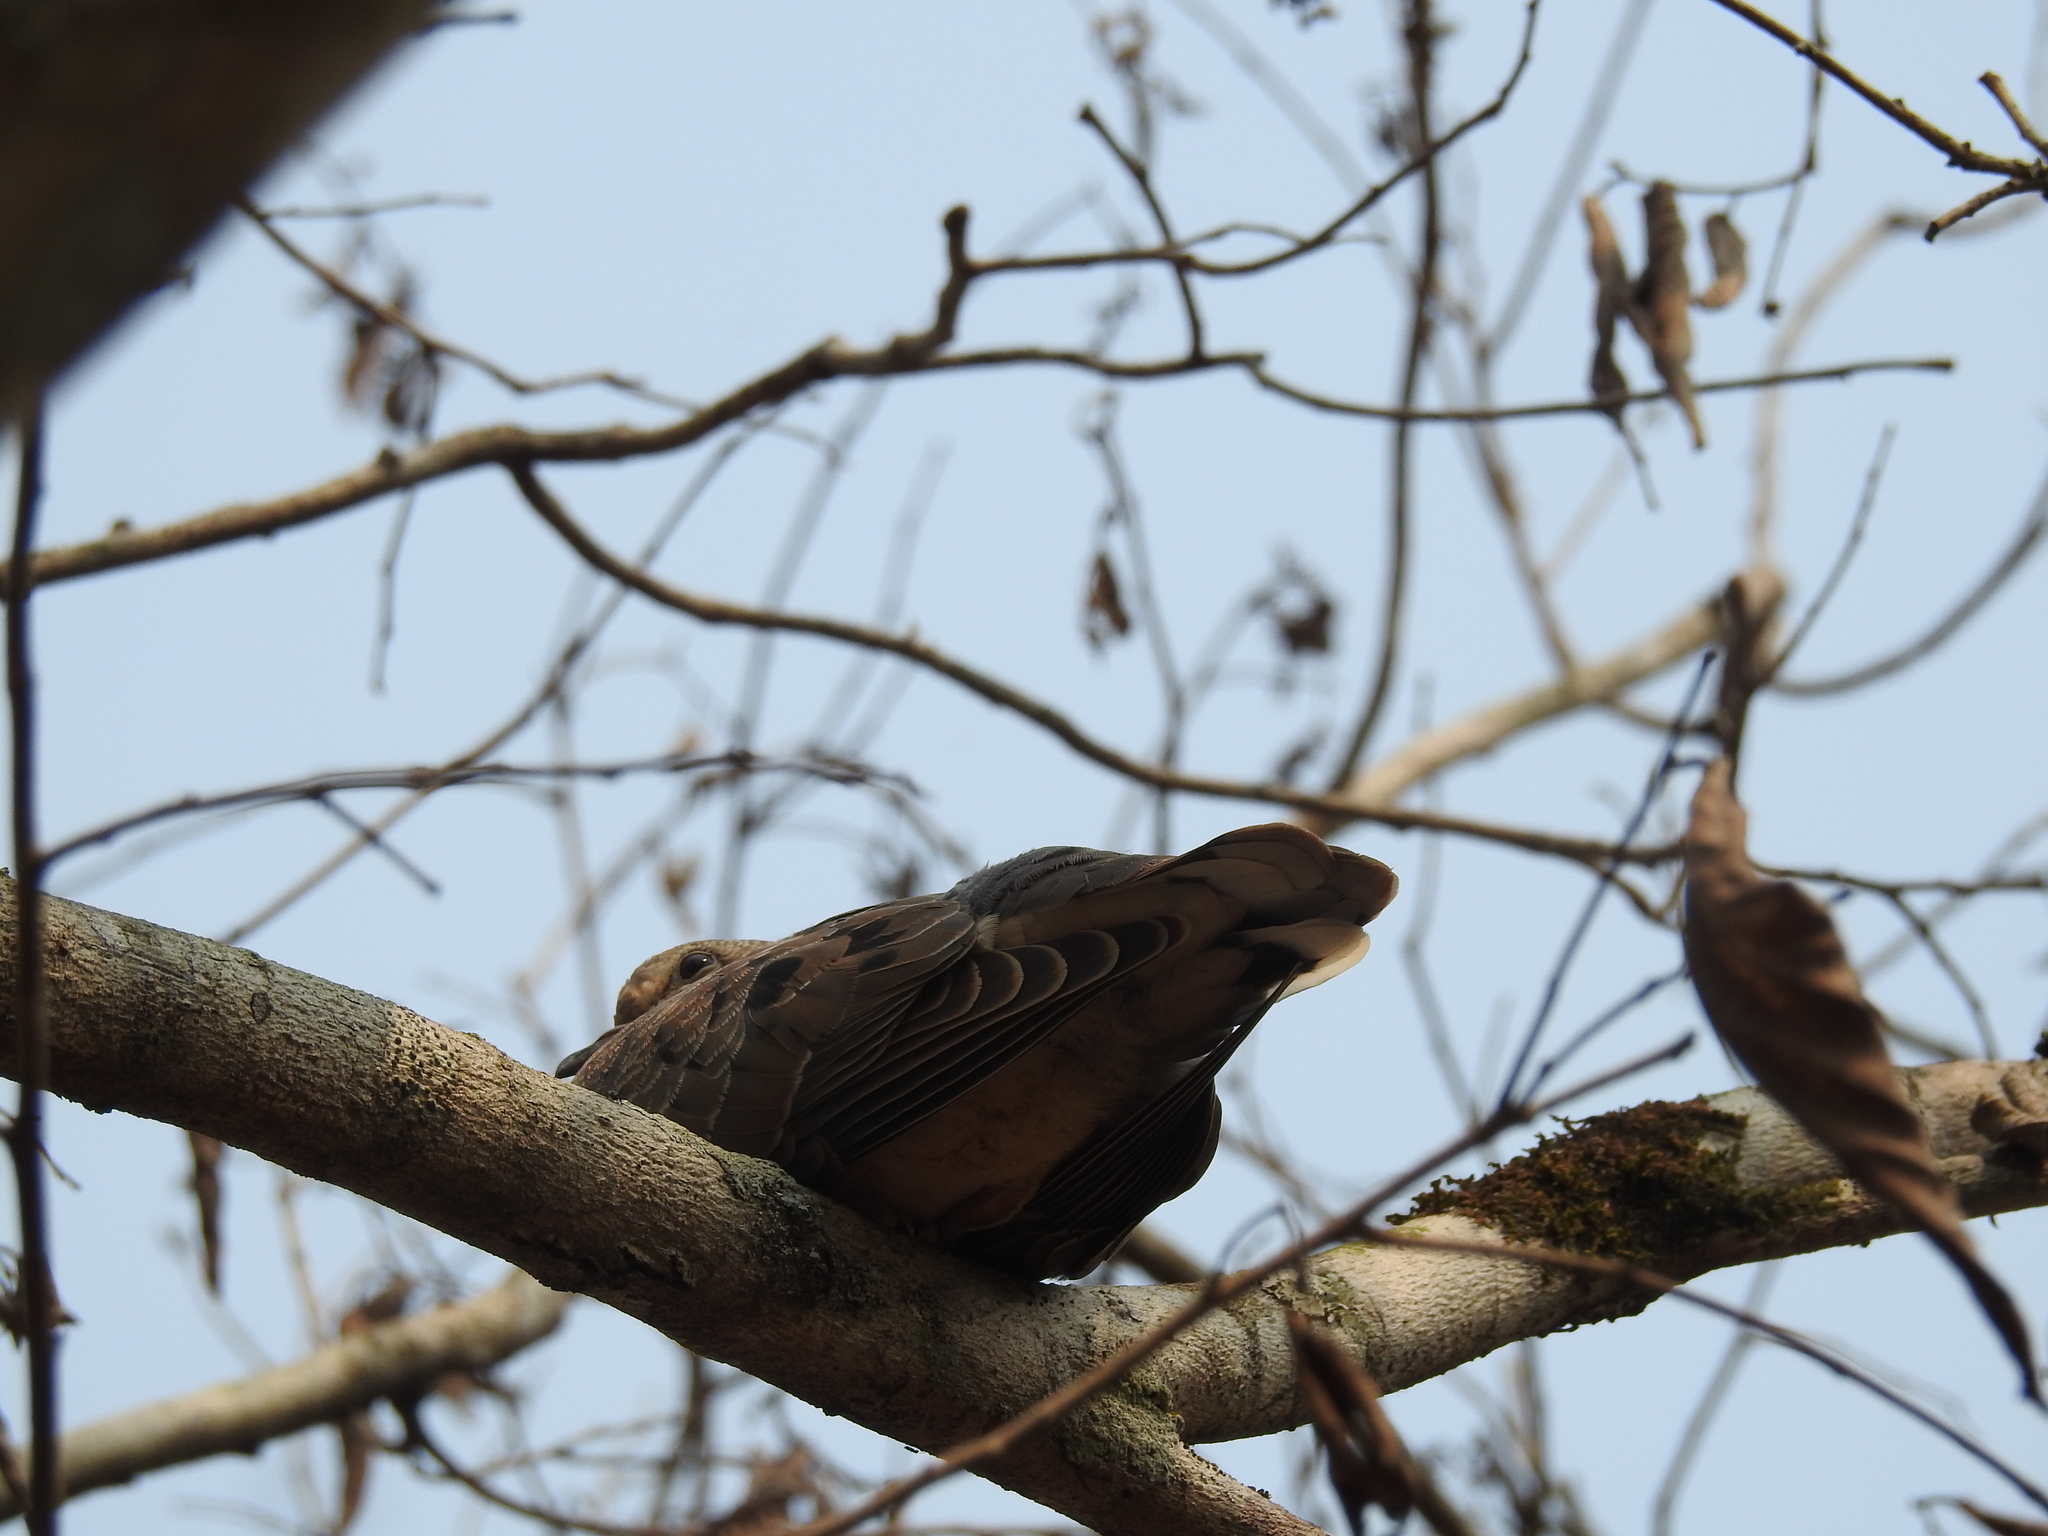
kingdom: Animalia
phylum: Chordata
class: Aves
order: Columbiformes
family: Columbidae
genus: Zenaida
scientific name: Zenaida auriculata
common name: Eared dove
